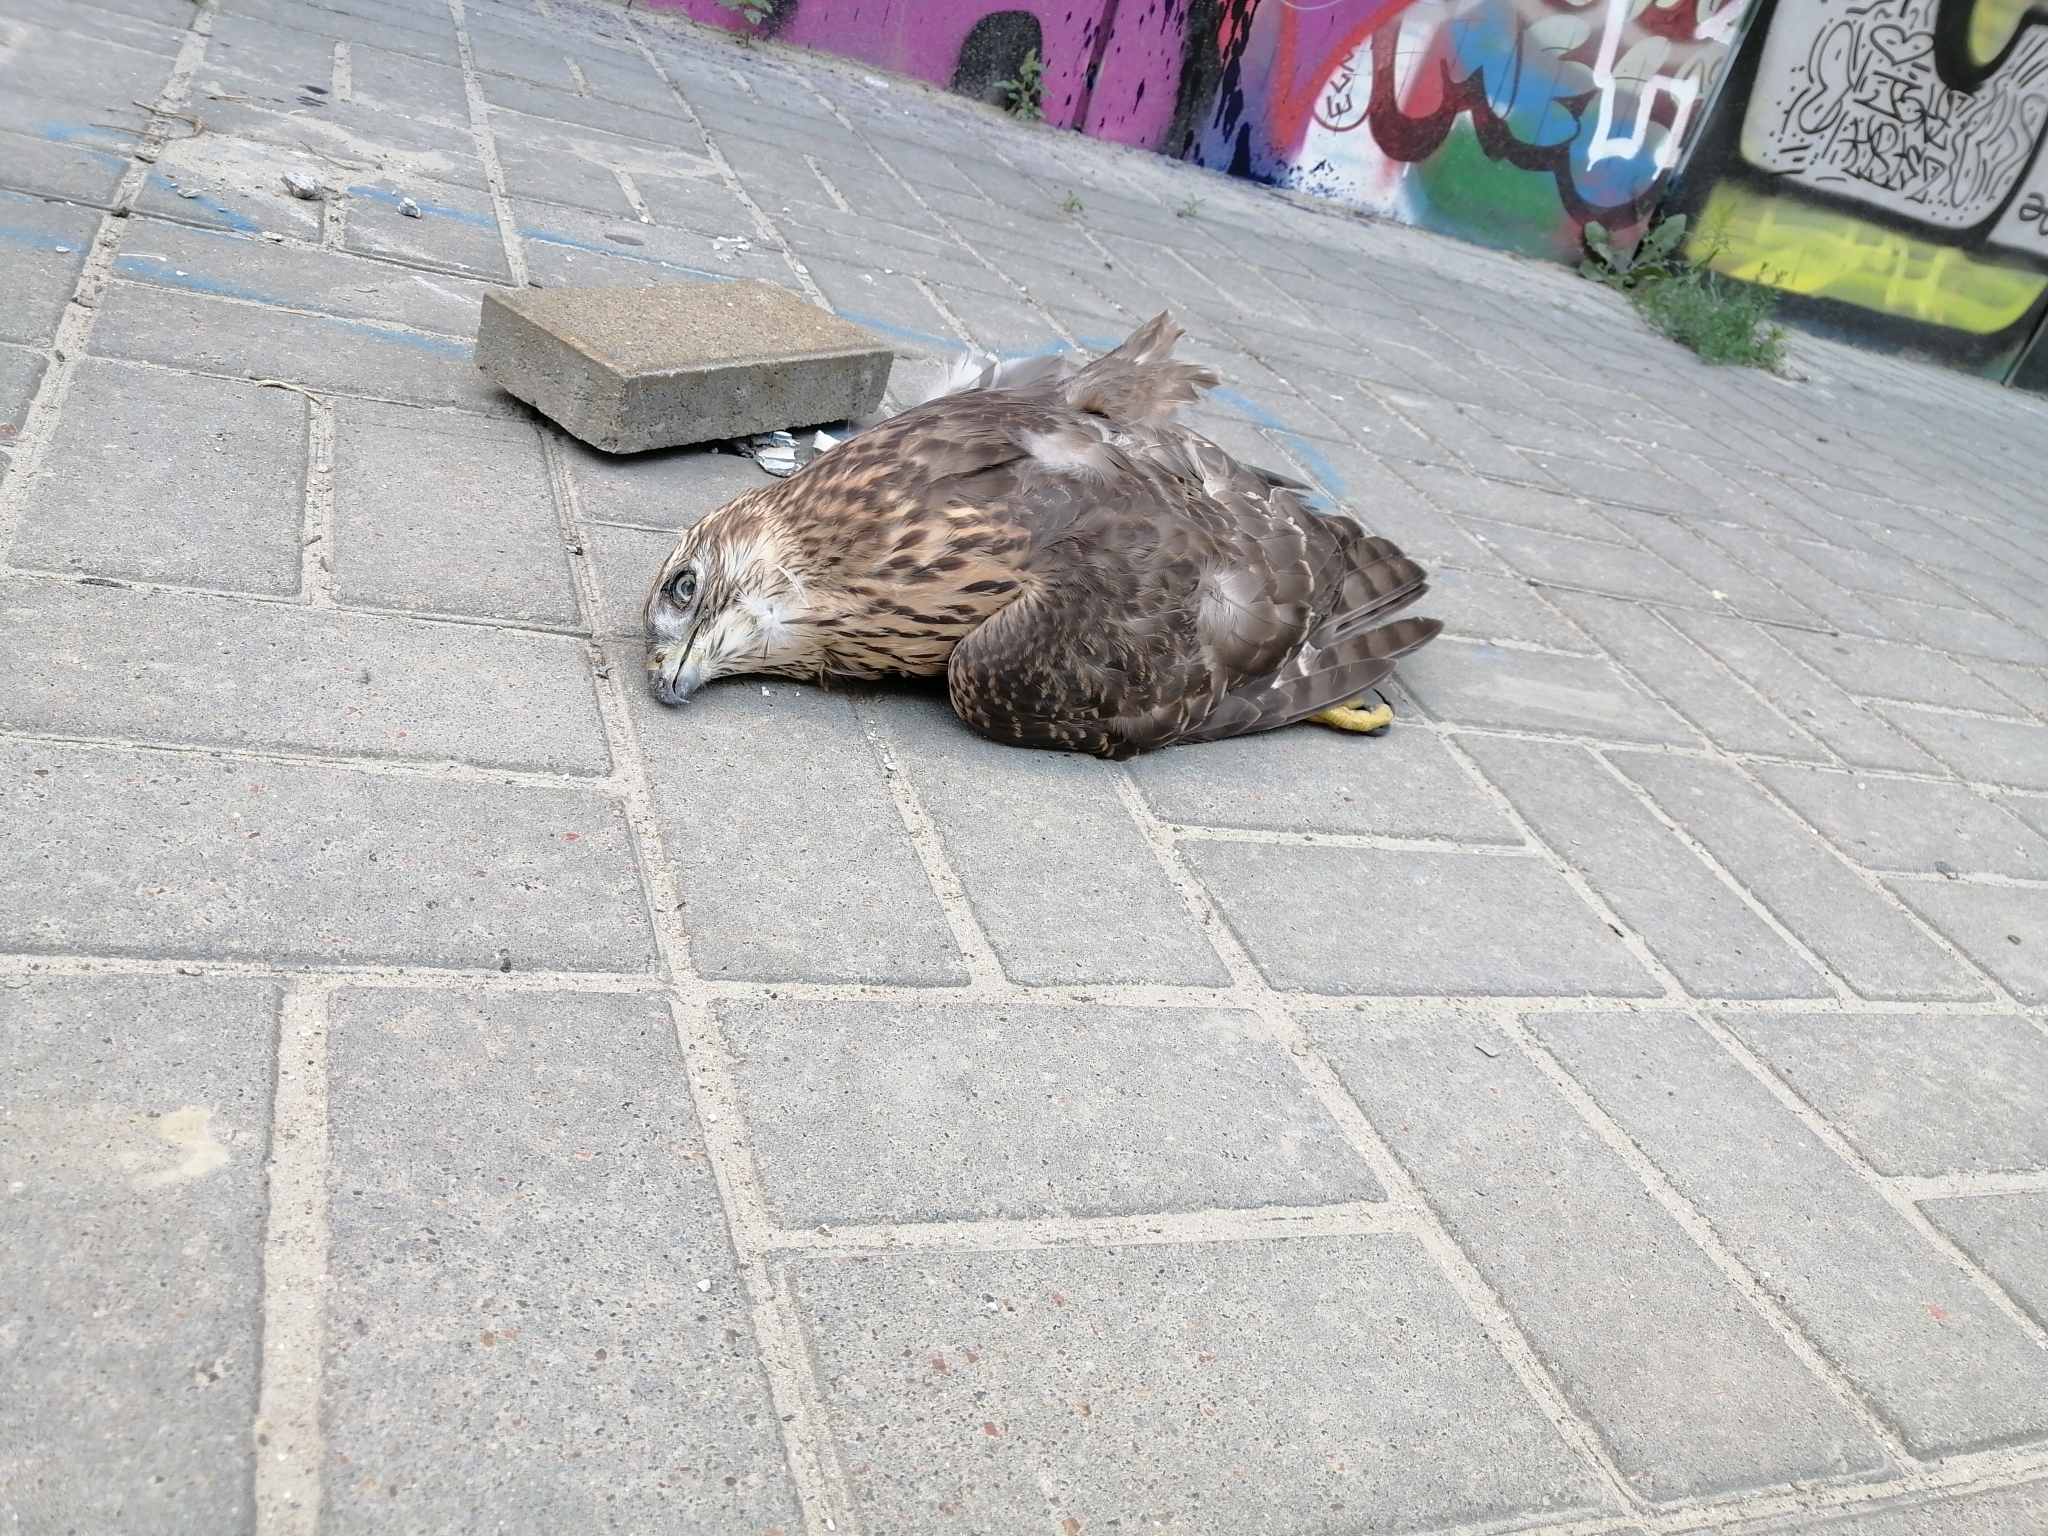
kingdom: Animalia
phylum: Chordata
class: Aves
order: Accipitriformes
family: Accipitridae
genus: Accipiter
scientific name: Accipiter gentilis
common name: Northern goshawk
